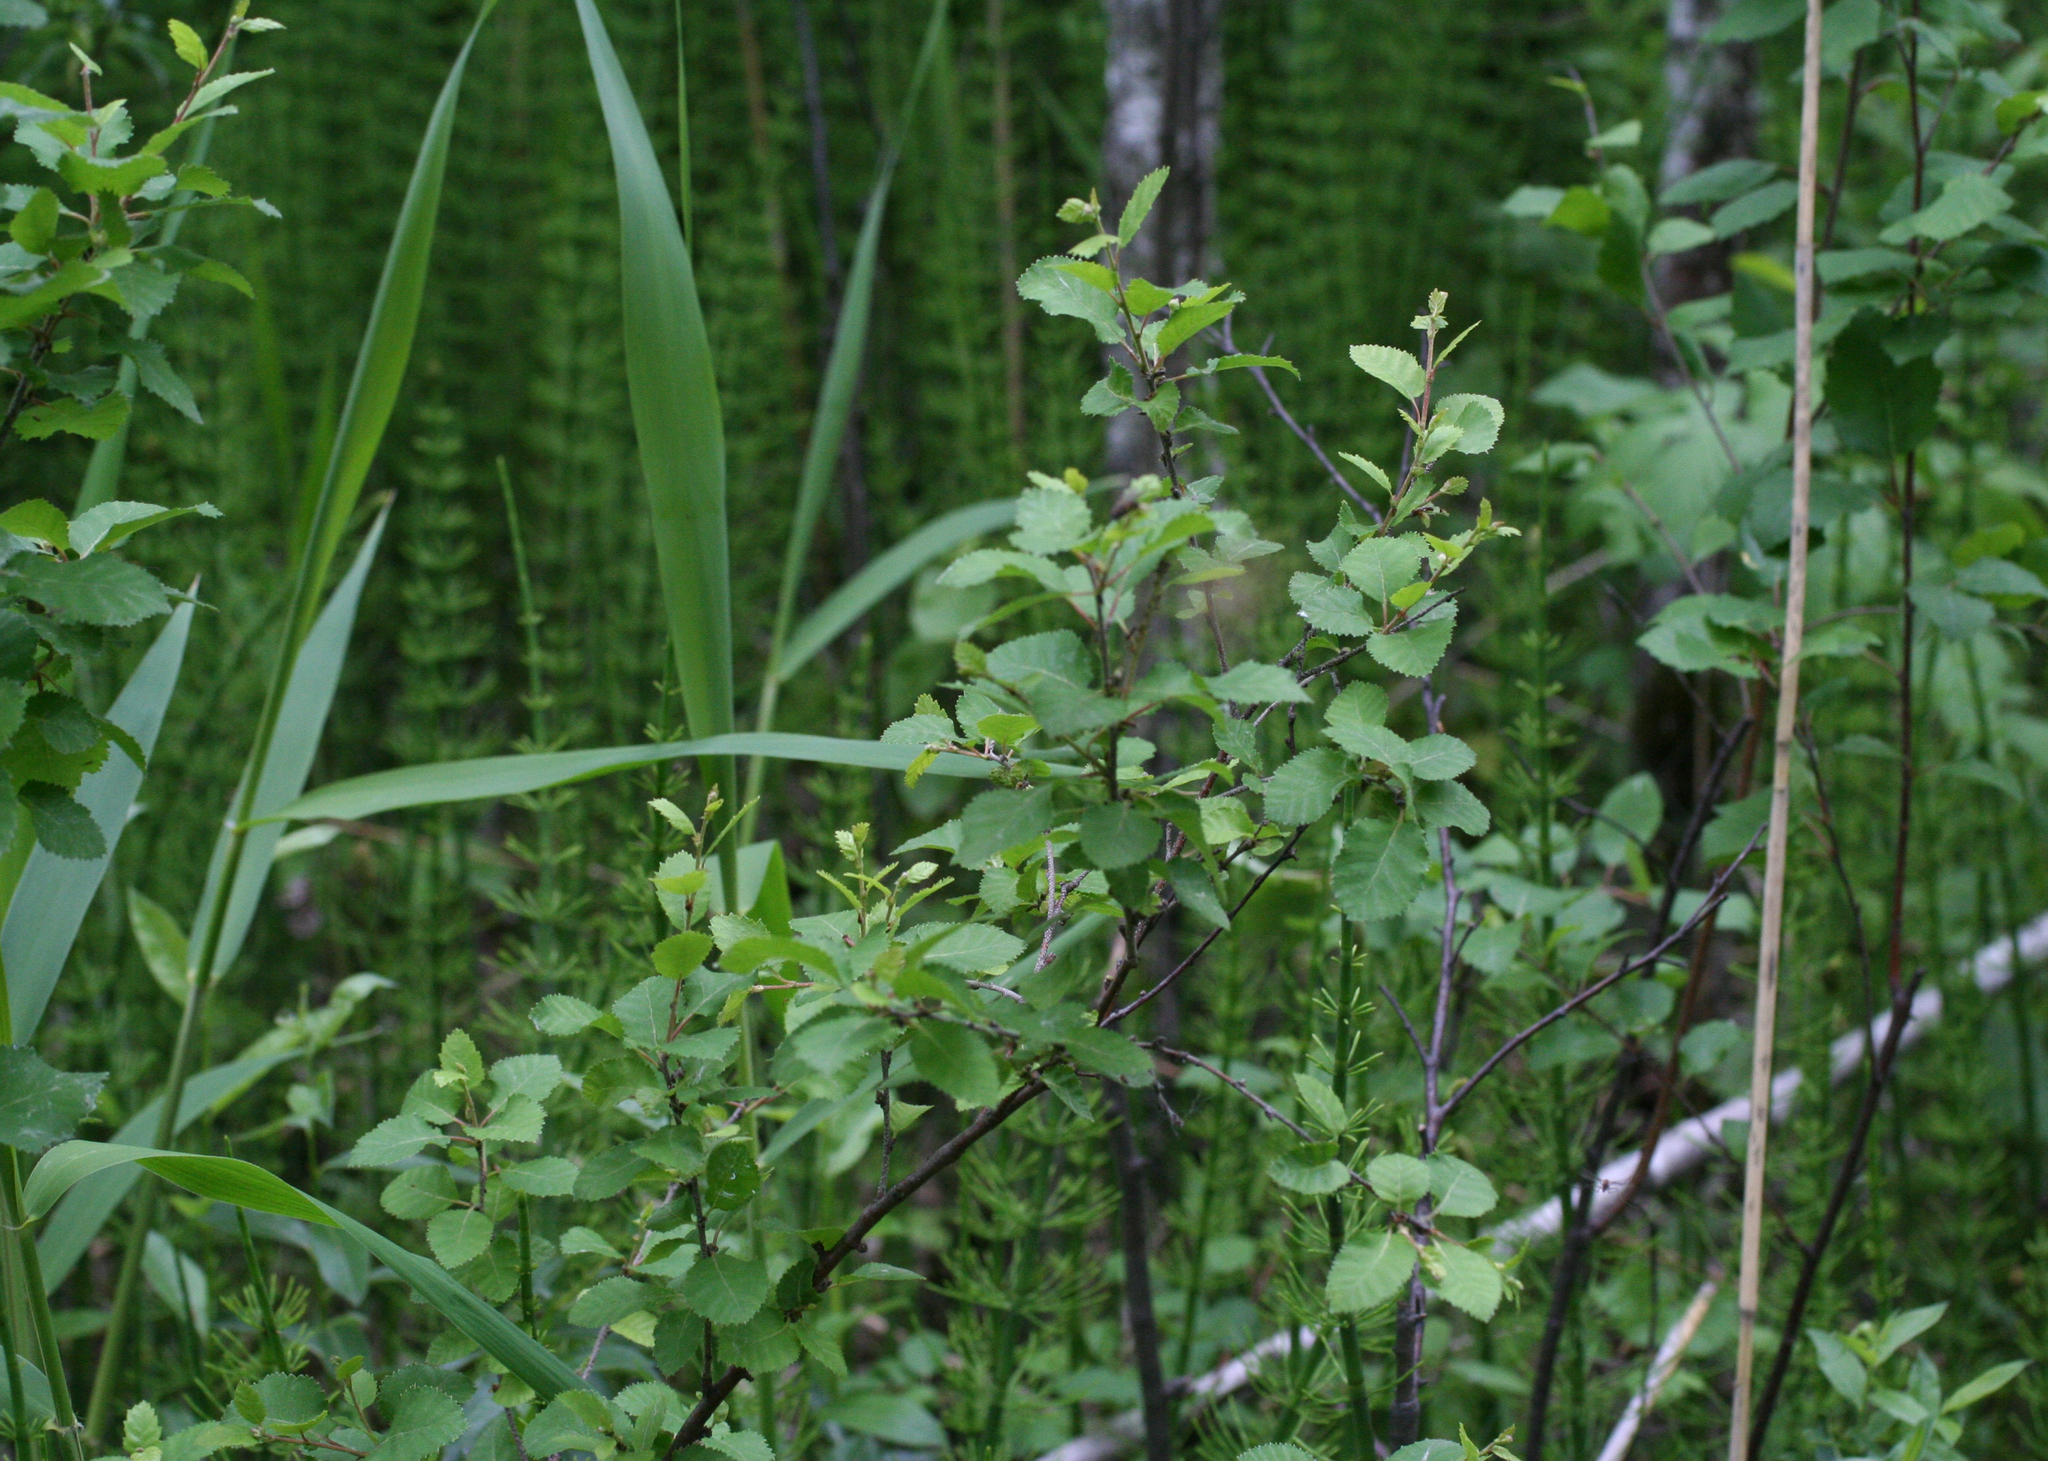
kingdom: Plantae
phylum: Tracheophyta
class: Magnoliopsida
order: Fagales
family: Betulaceae
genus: Betula
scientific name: Betula fruticosa
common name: Japanese bog birch
